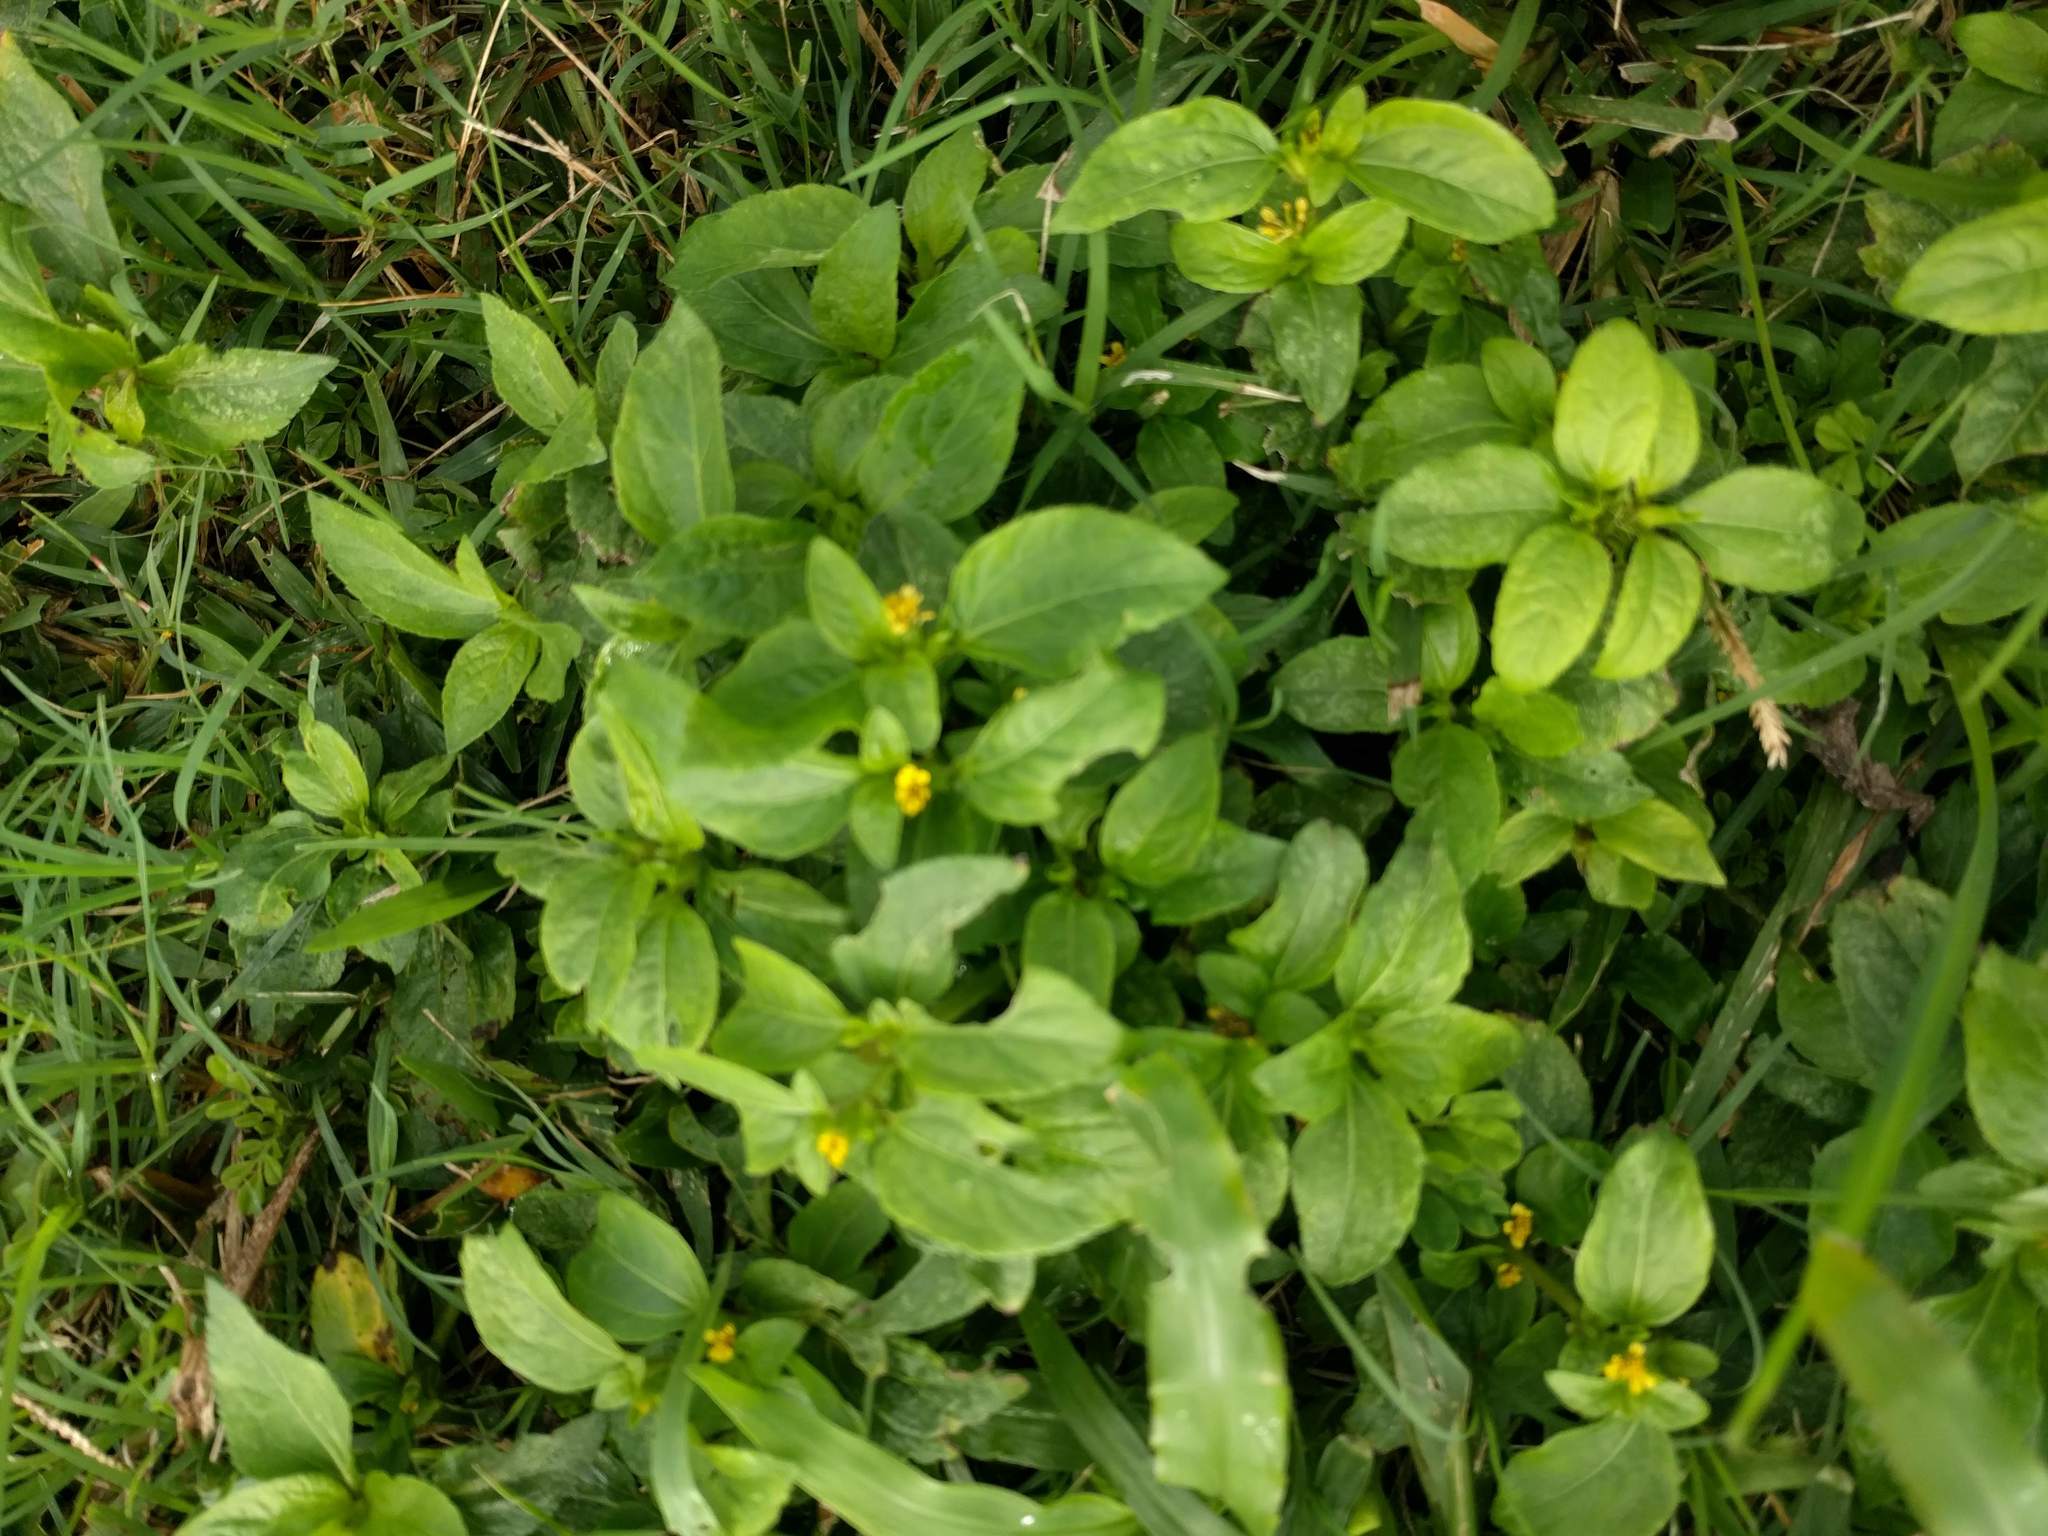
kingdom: Plantae
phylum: Tracheophyta
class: Magnoliopsida
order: Asterales
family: Asteraceae
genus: Synedrella
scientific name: Synedrella nodiflora
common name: Nodeweed
